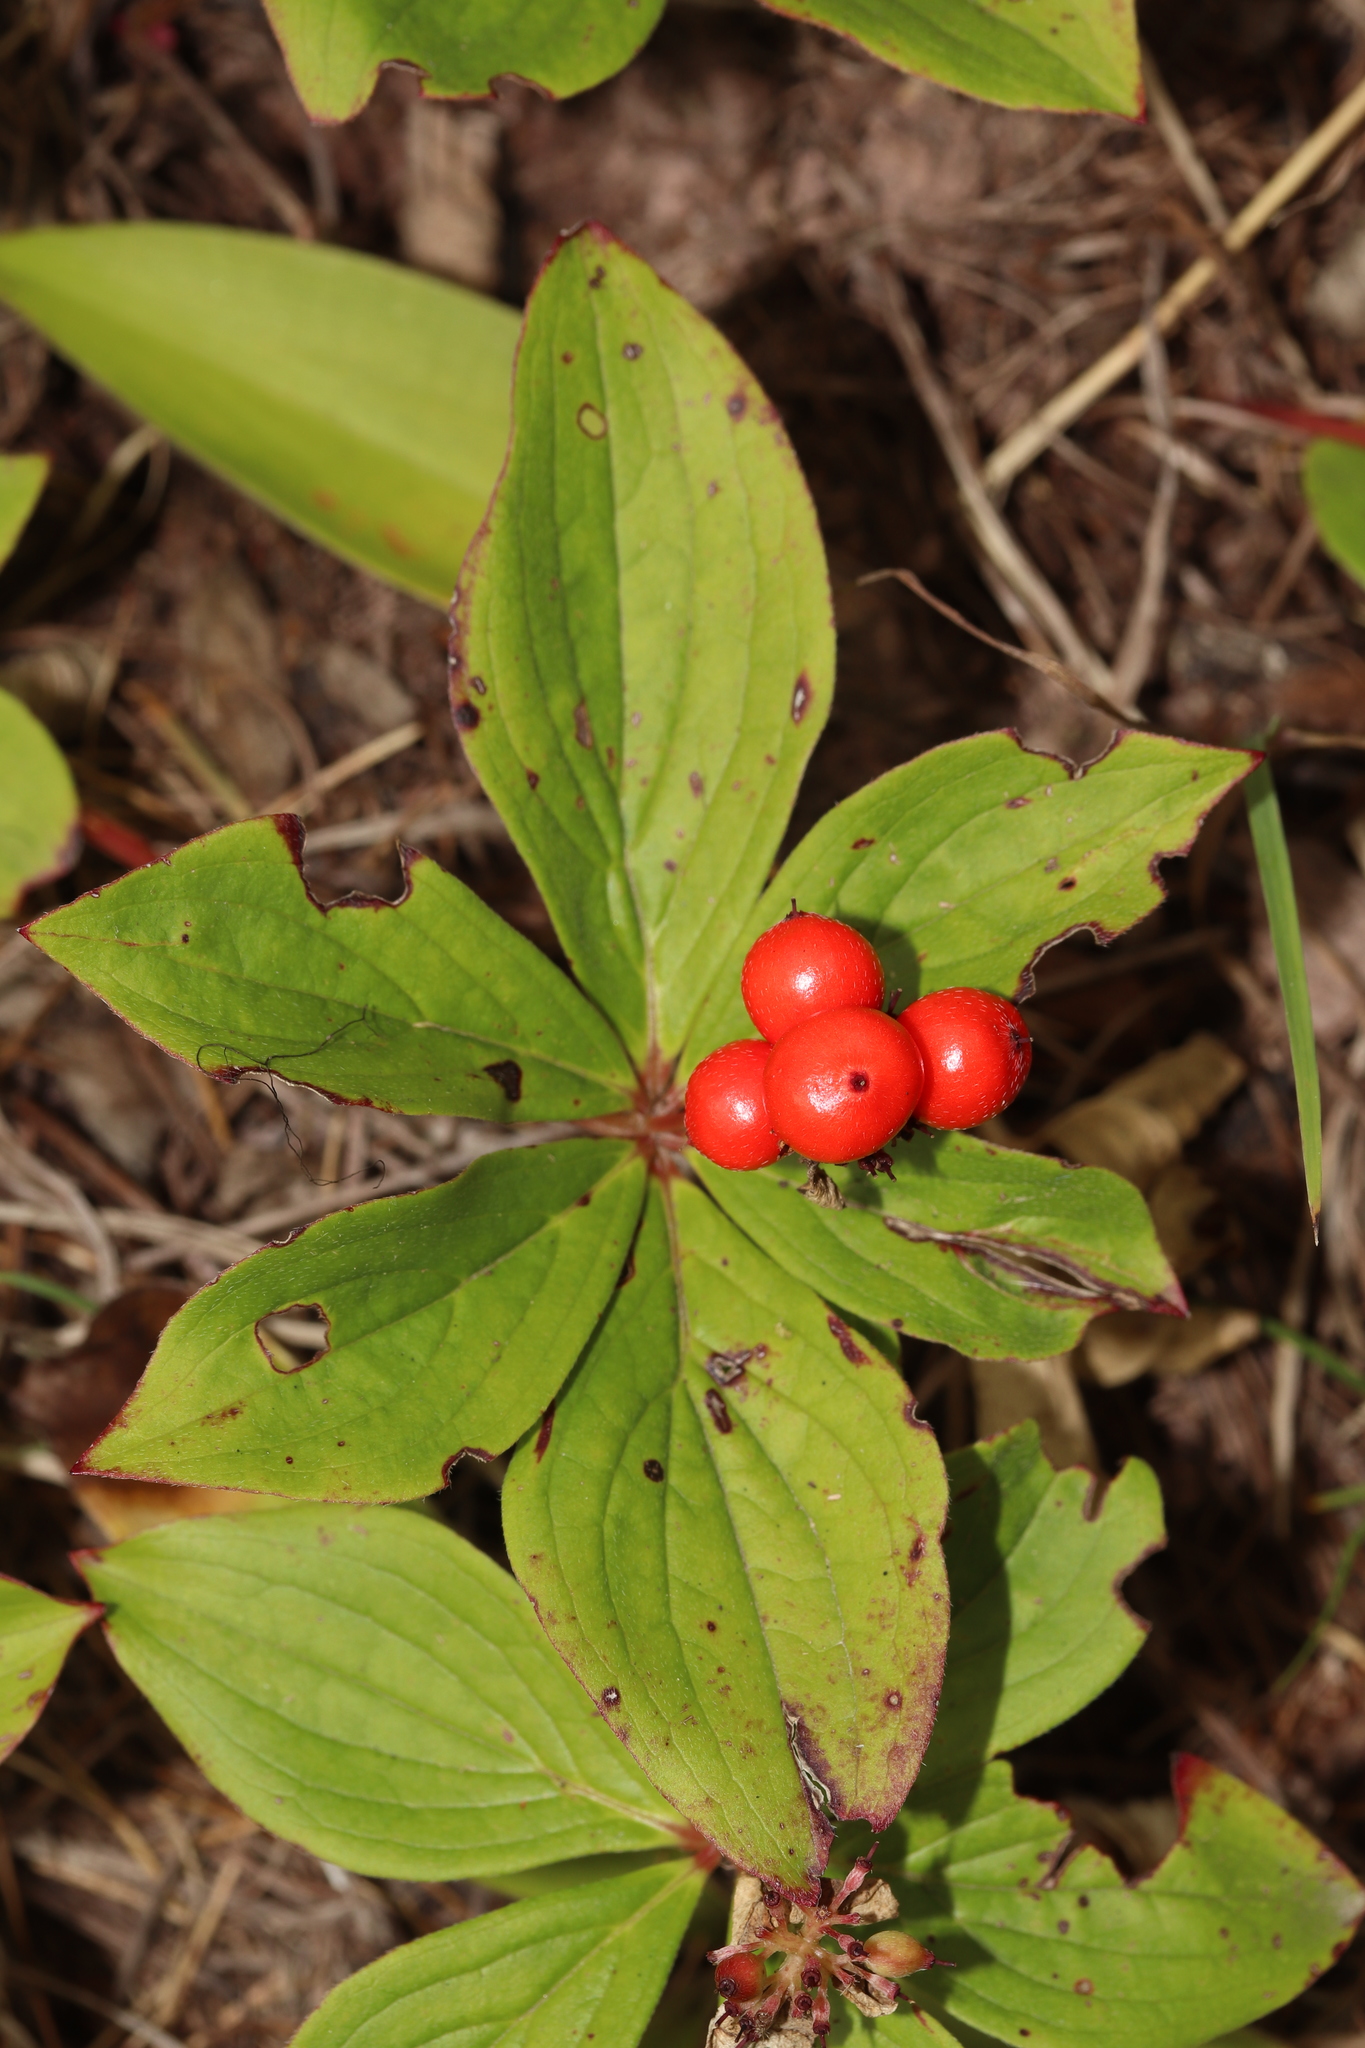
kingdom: Plantae
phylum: Tracheophyta
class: Magnoliopsida
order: Cornales
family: Cornaceae
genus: Cornus
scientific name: Cornus canadensis
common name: Creeping dogwood
